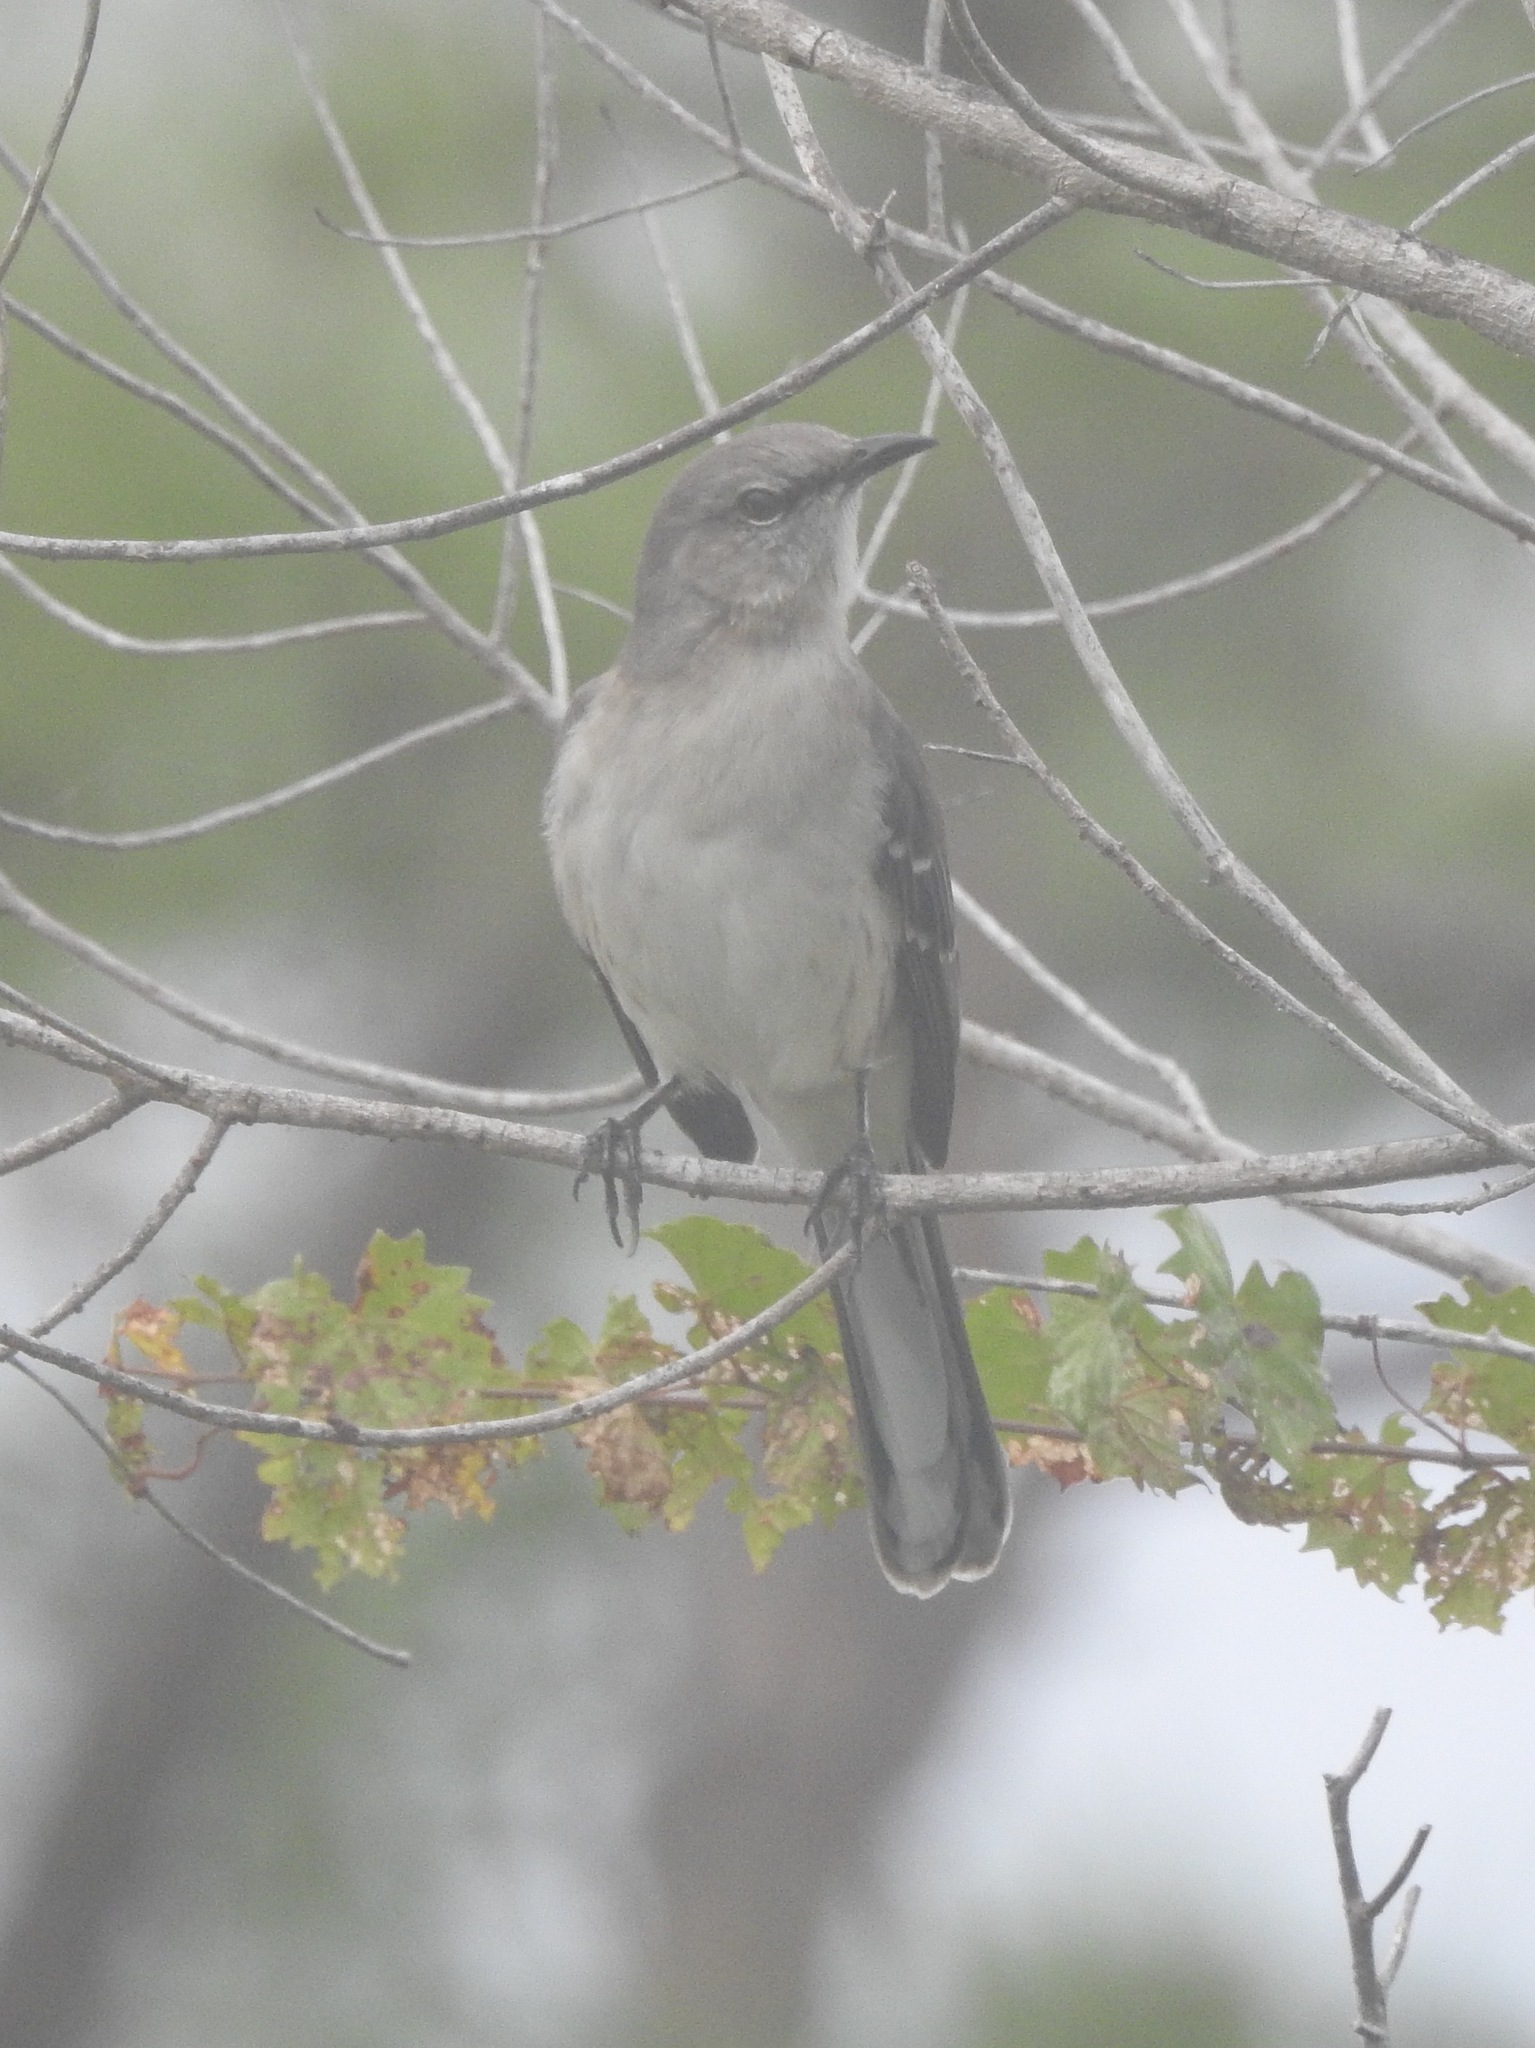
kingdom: Animalia
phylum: Chordata
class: Aves
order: Passeriformes
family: Mimidae
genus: Mimus
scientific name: Mimus polyglottos
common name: Northern mockingbird
